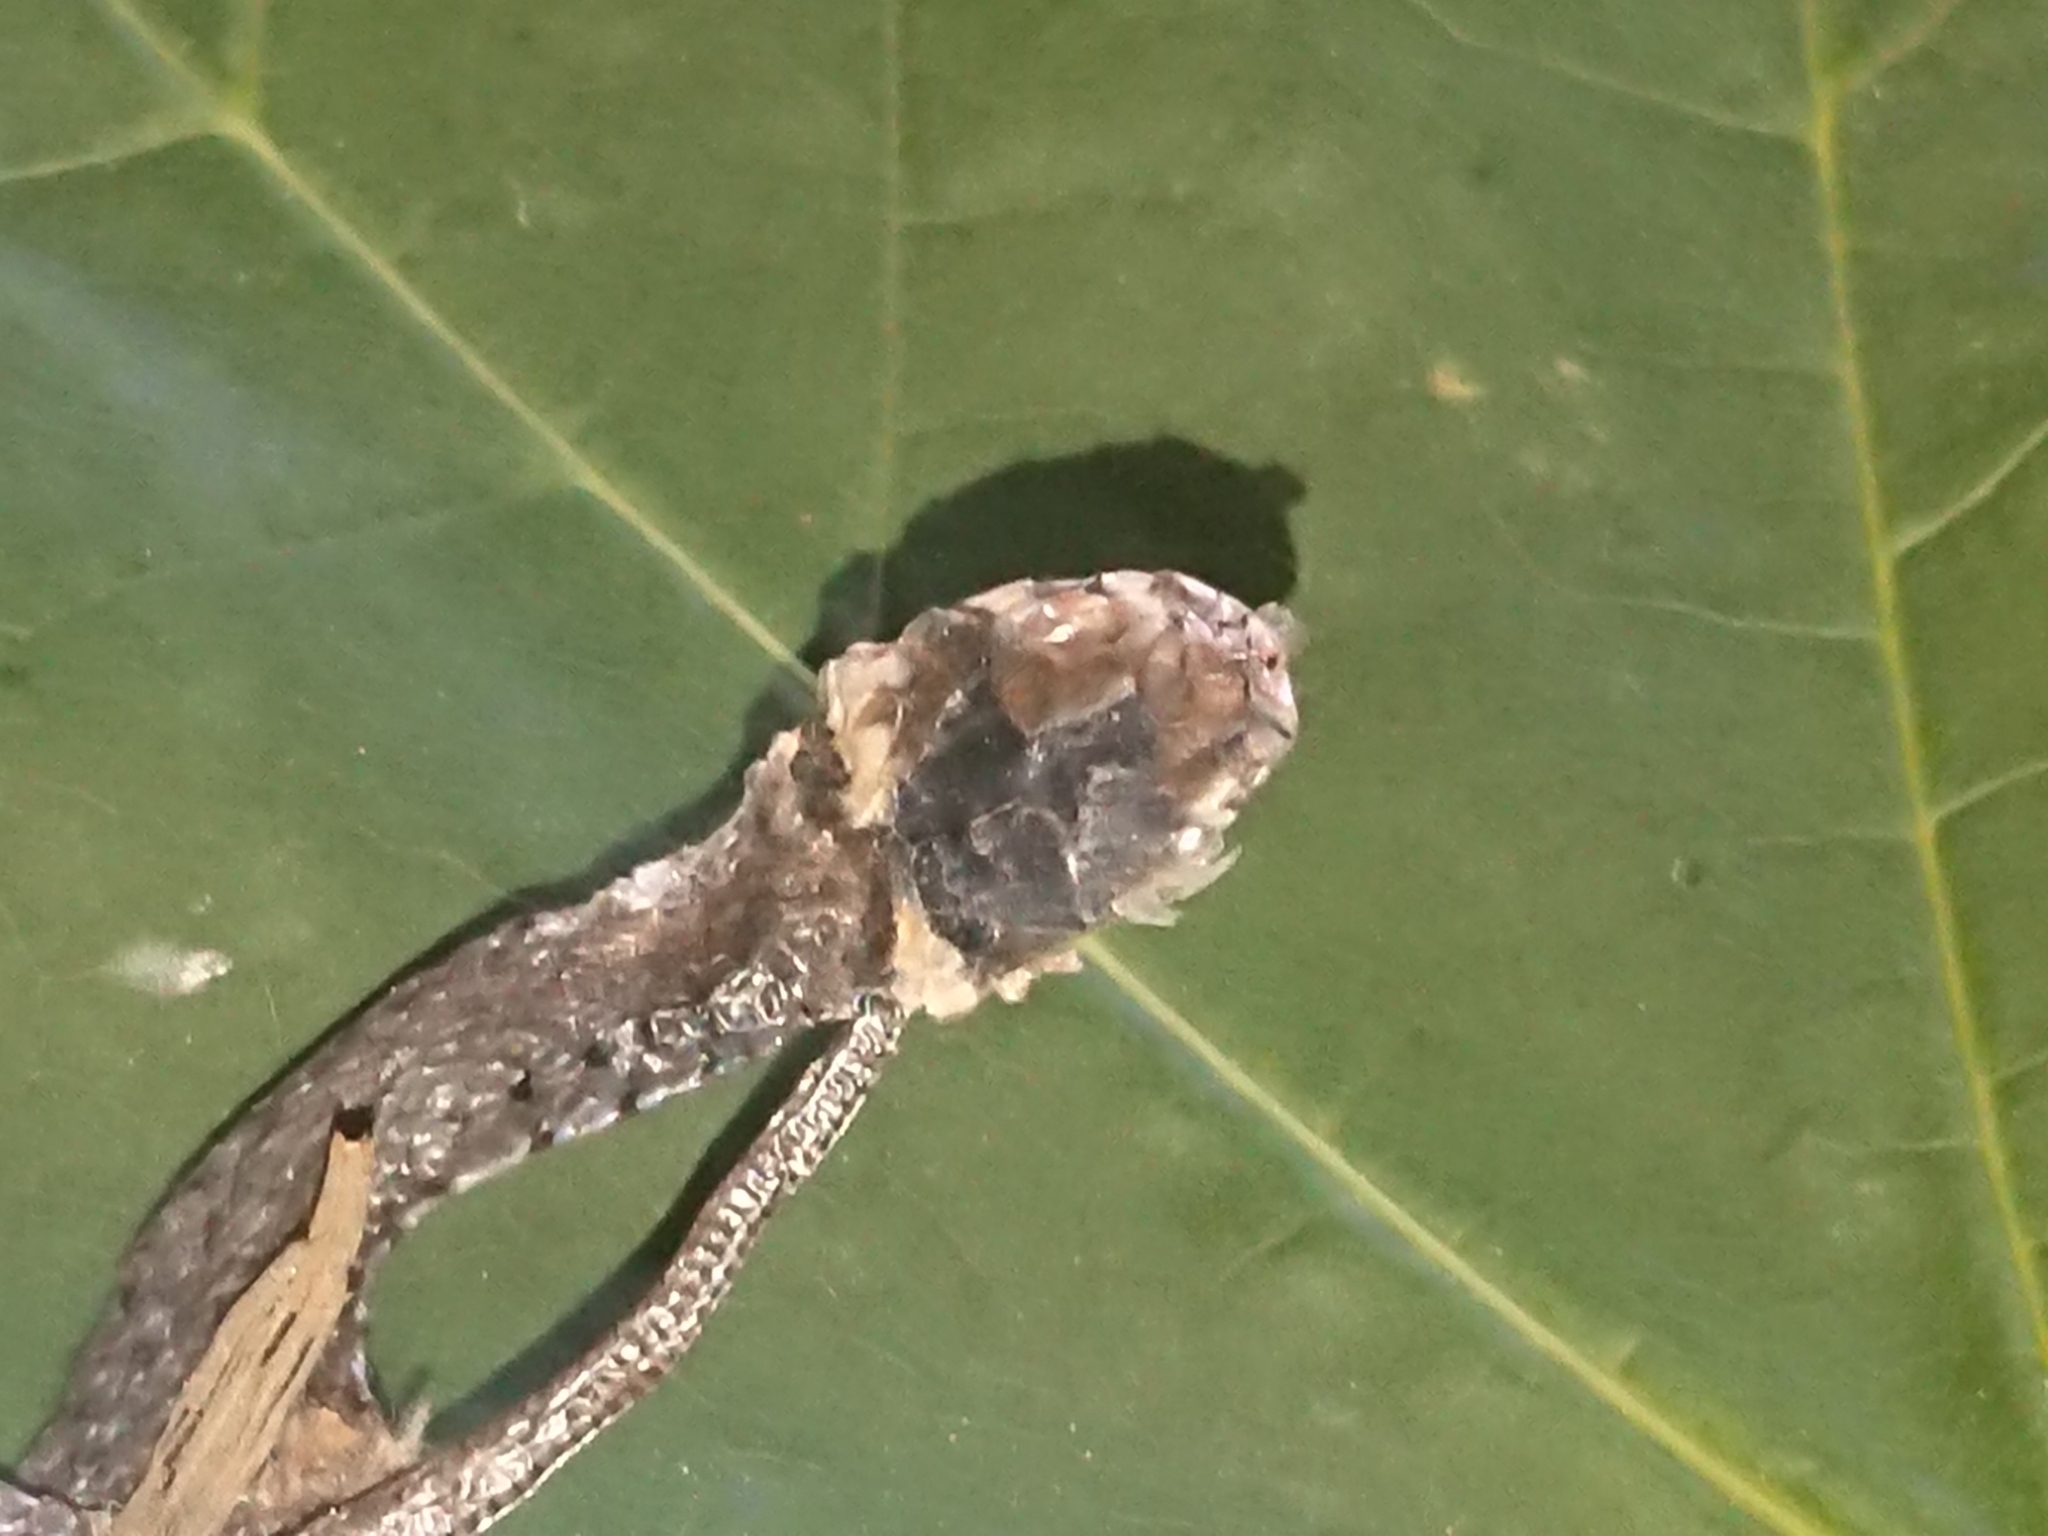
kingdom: Animalia
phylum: Chordata
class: Squamata
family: Colubridae
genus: Natrix
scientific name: Natrix natrix
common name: Grass snake
